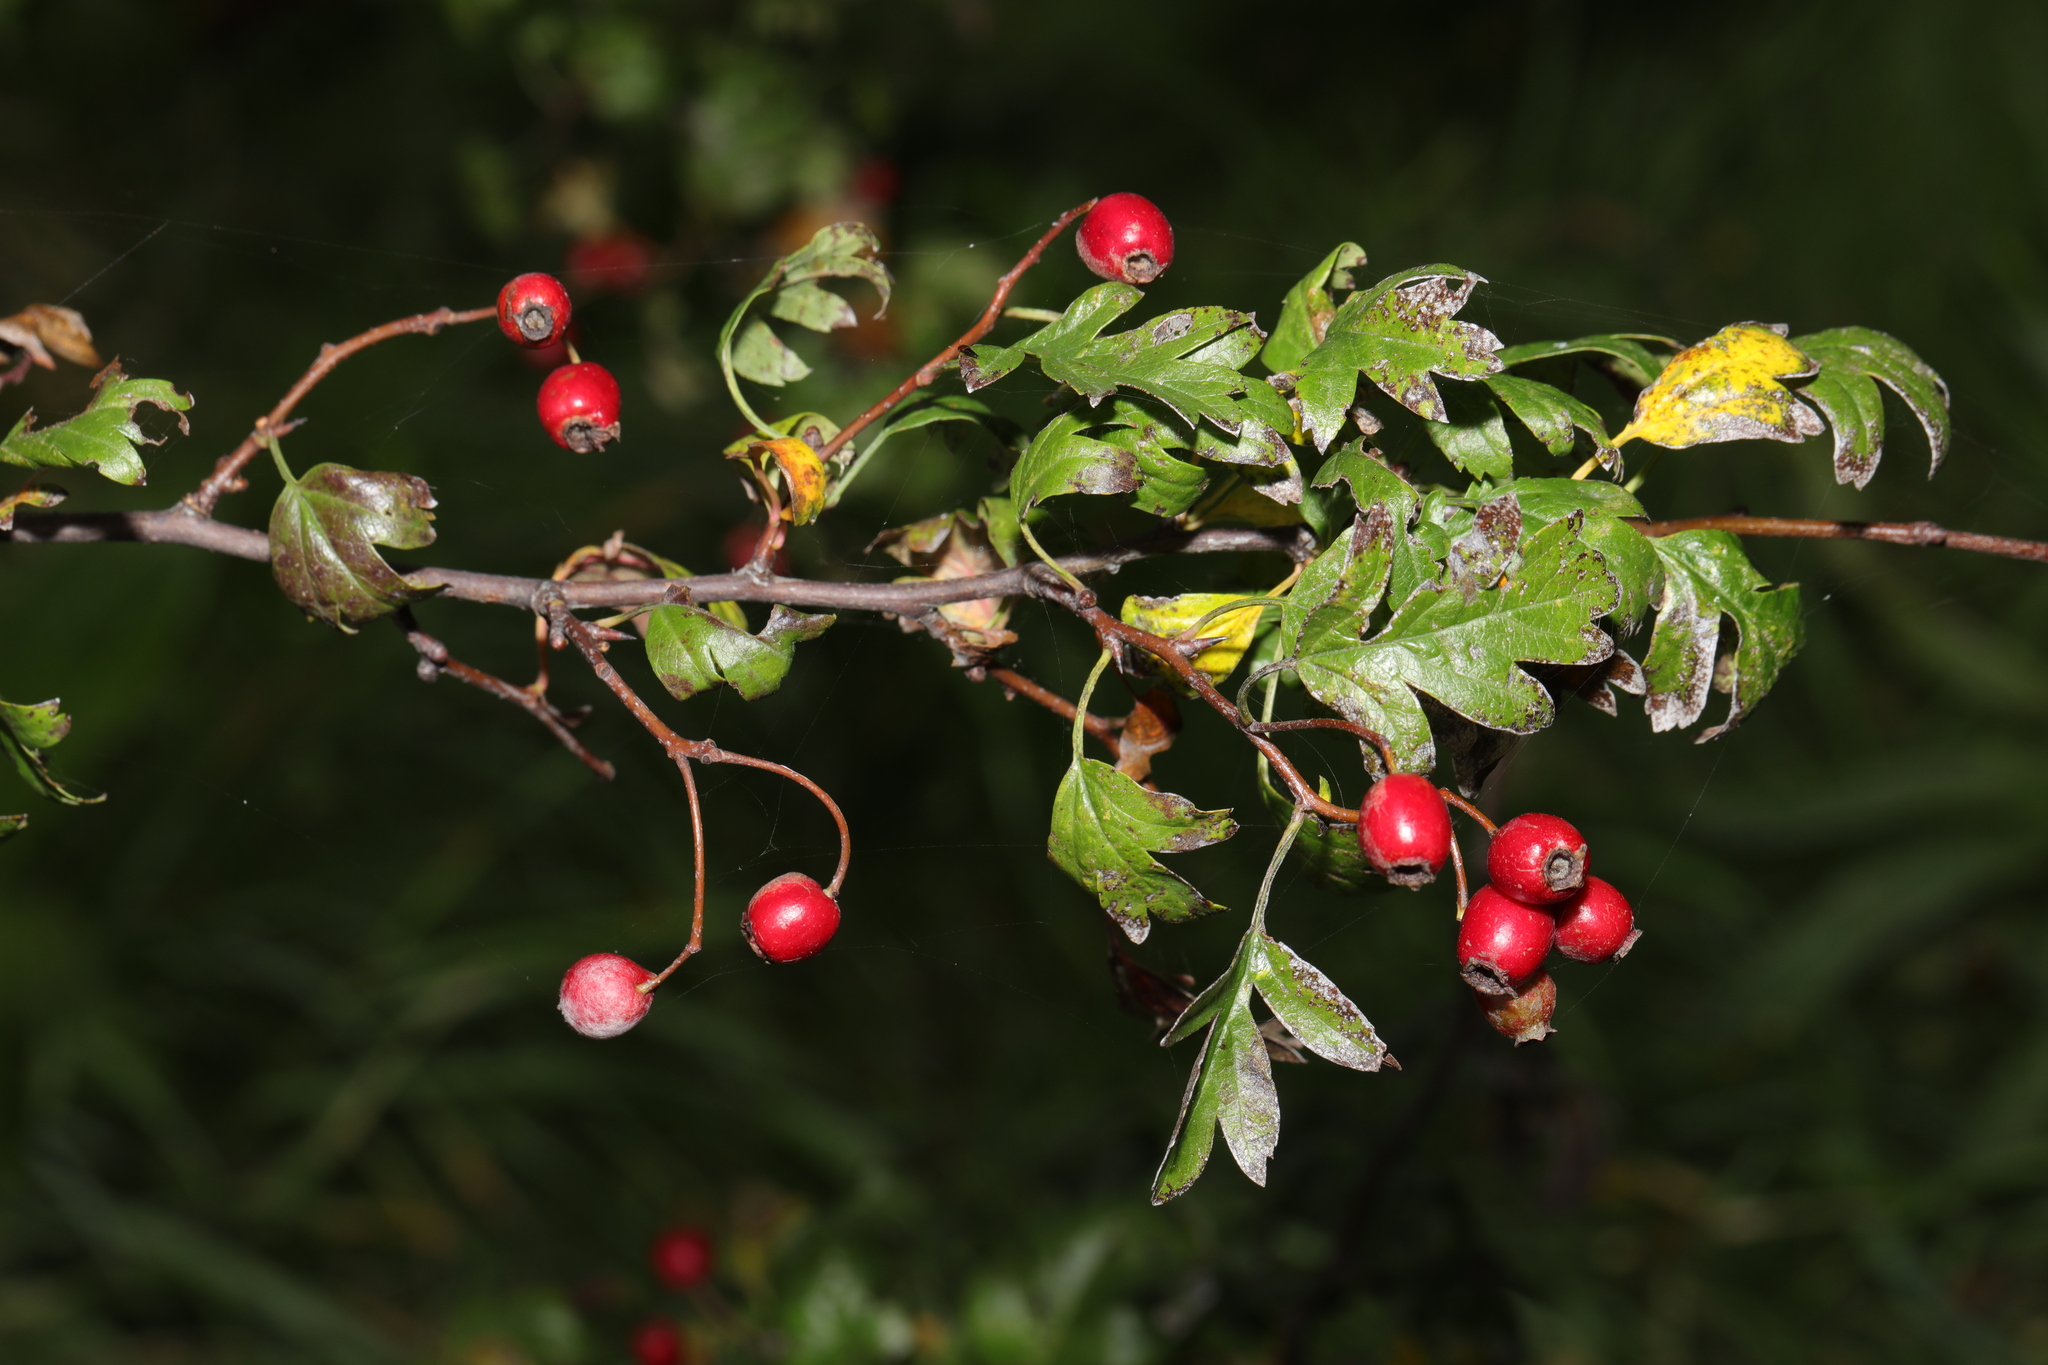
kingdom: Plantae
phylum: Tracheophyta
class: Magnoliopsida
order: Rosales
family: Rosaceae
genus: Crataegus
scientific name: Crataegus monogyna
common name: Hawthorn
